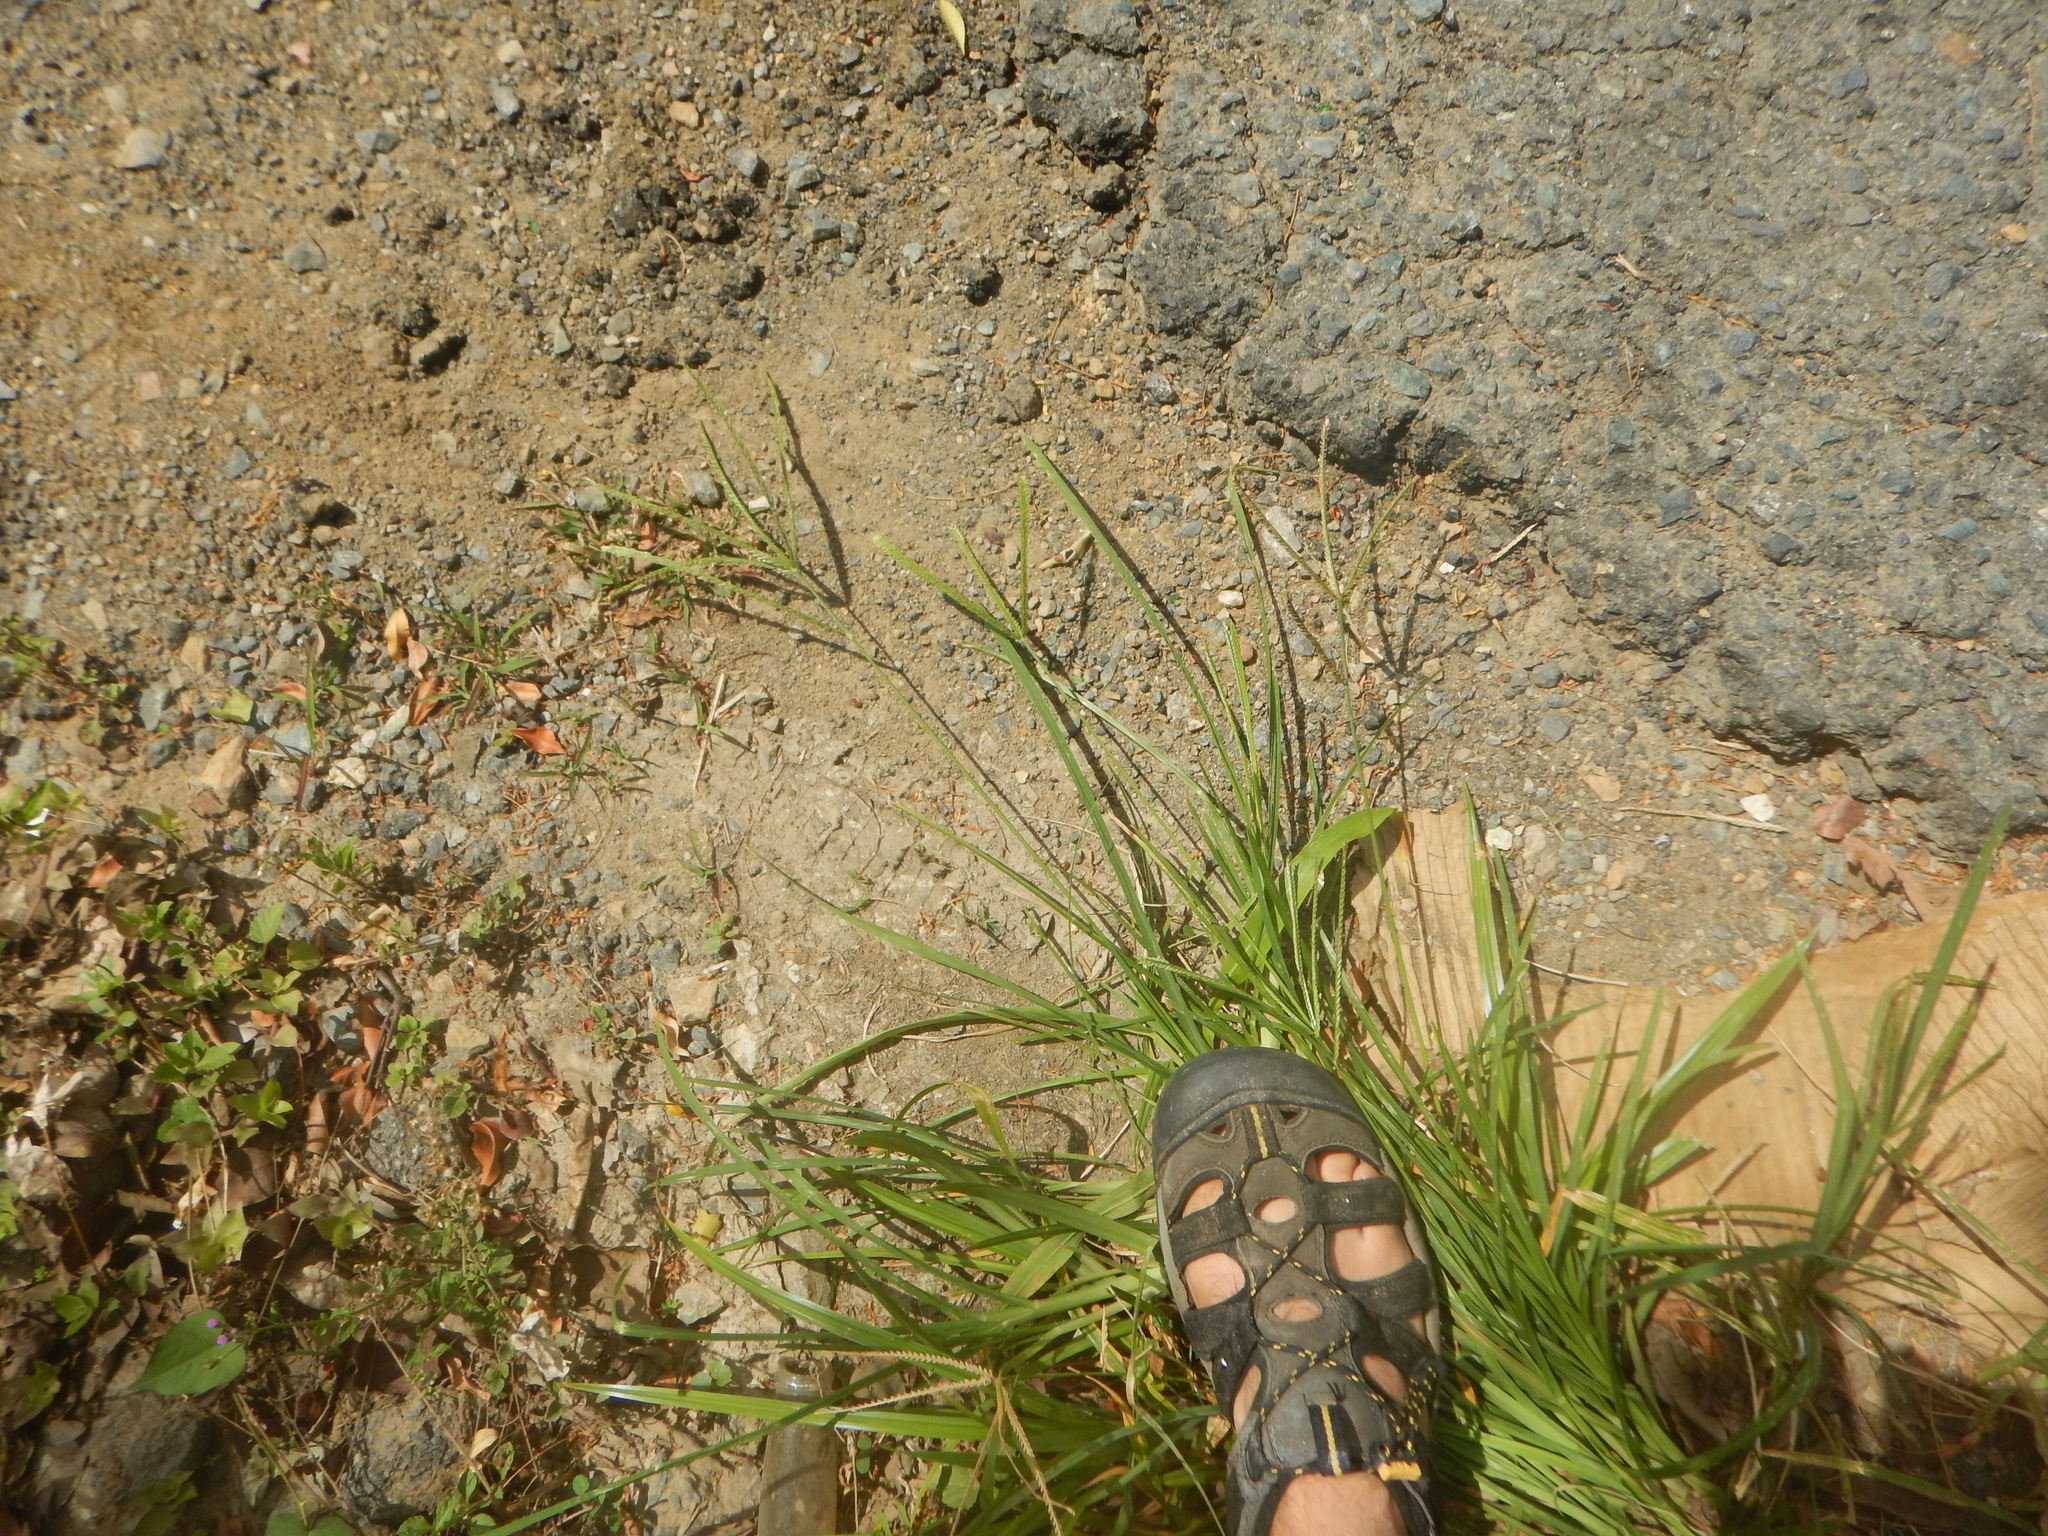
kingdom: Plantae
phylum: Tracheophyta
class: Liliopsida
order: Poales
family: Poaceae
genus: Eleusine
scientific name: Eleusine indica
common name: Yard-grass
